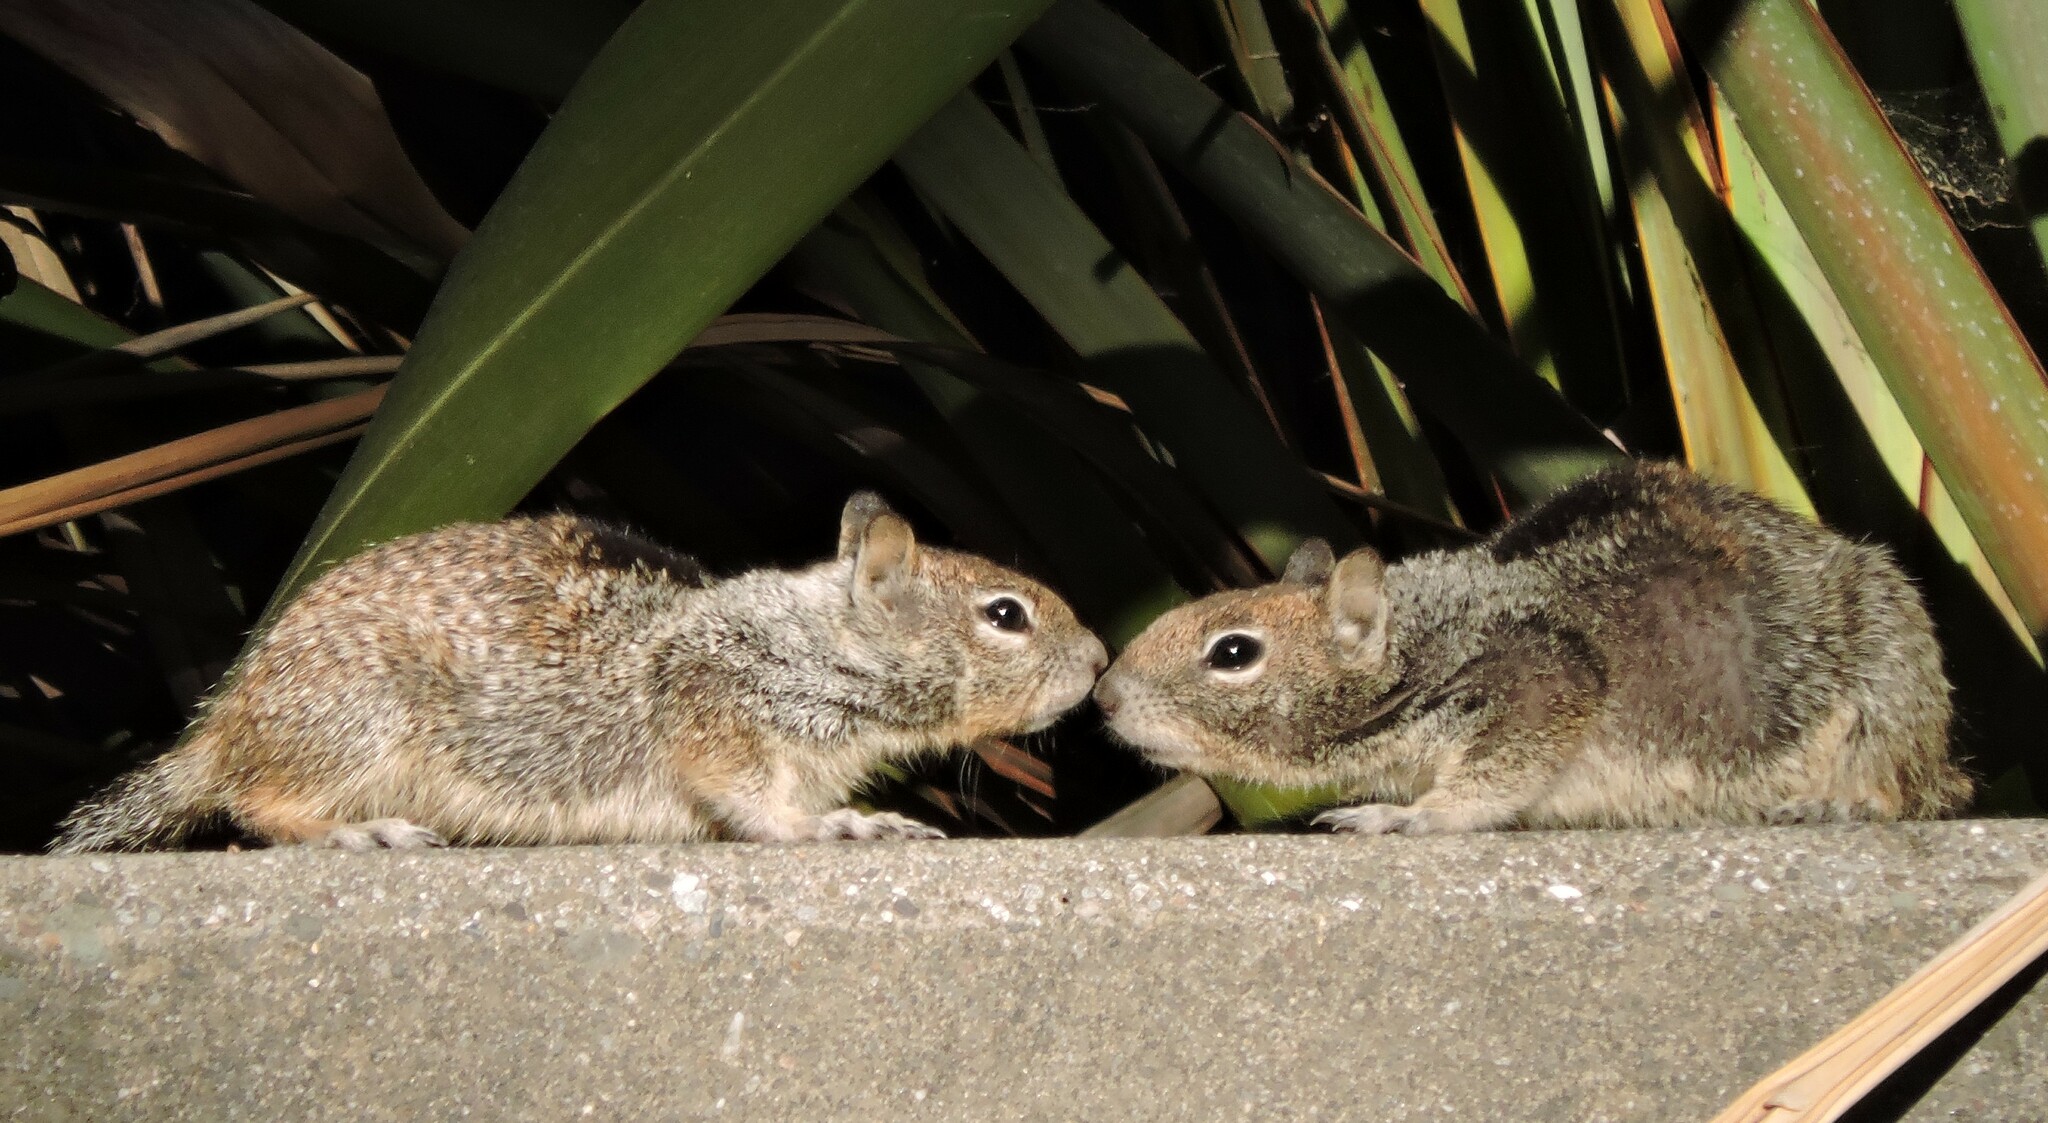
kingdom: Animalia
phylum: Chordata
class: Mammalia
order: Rodentia
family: Sciuridae
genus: Otospermophilus
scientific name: Otospermophilus beecheyi
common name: California ground squirrel
